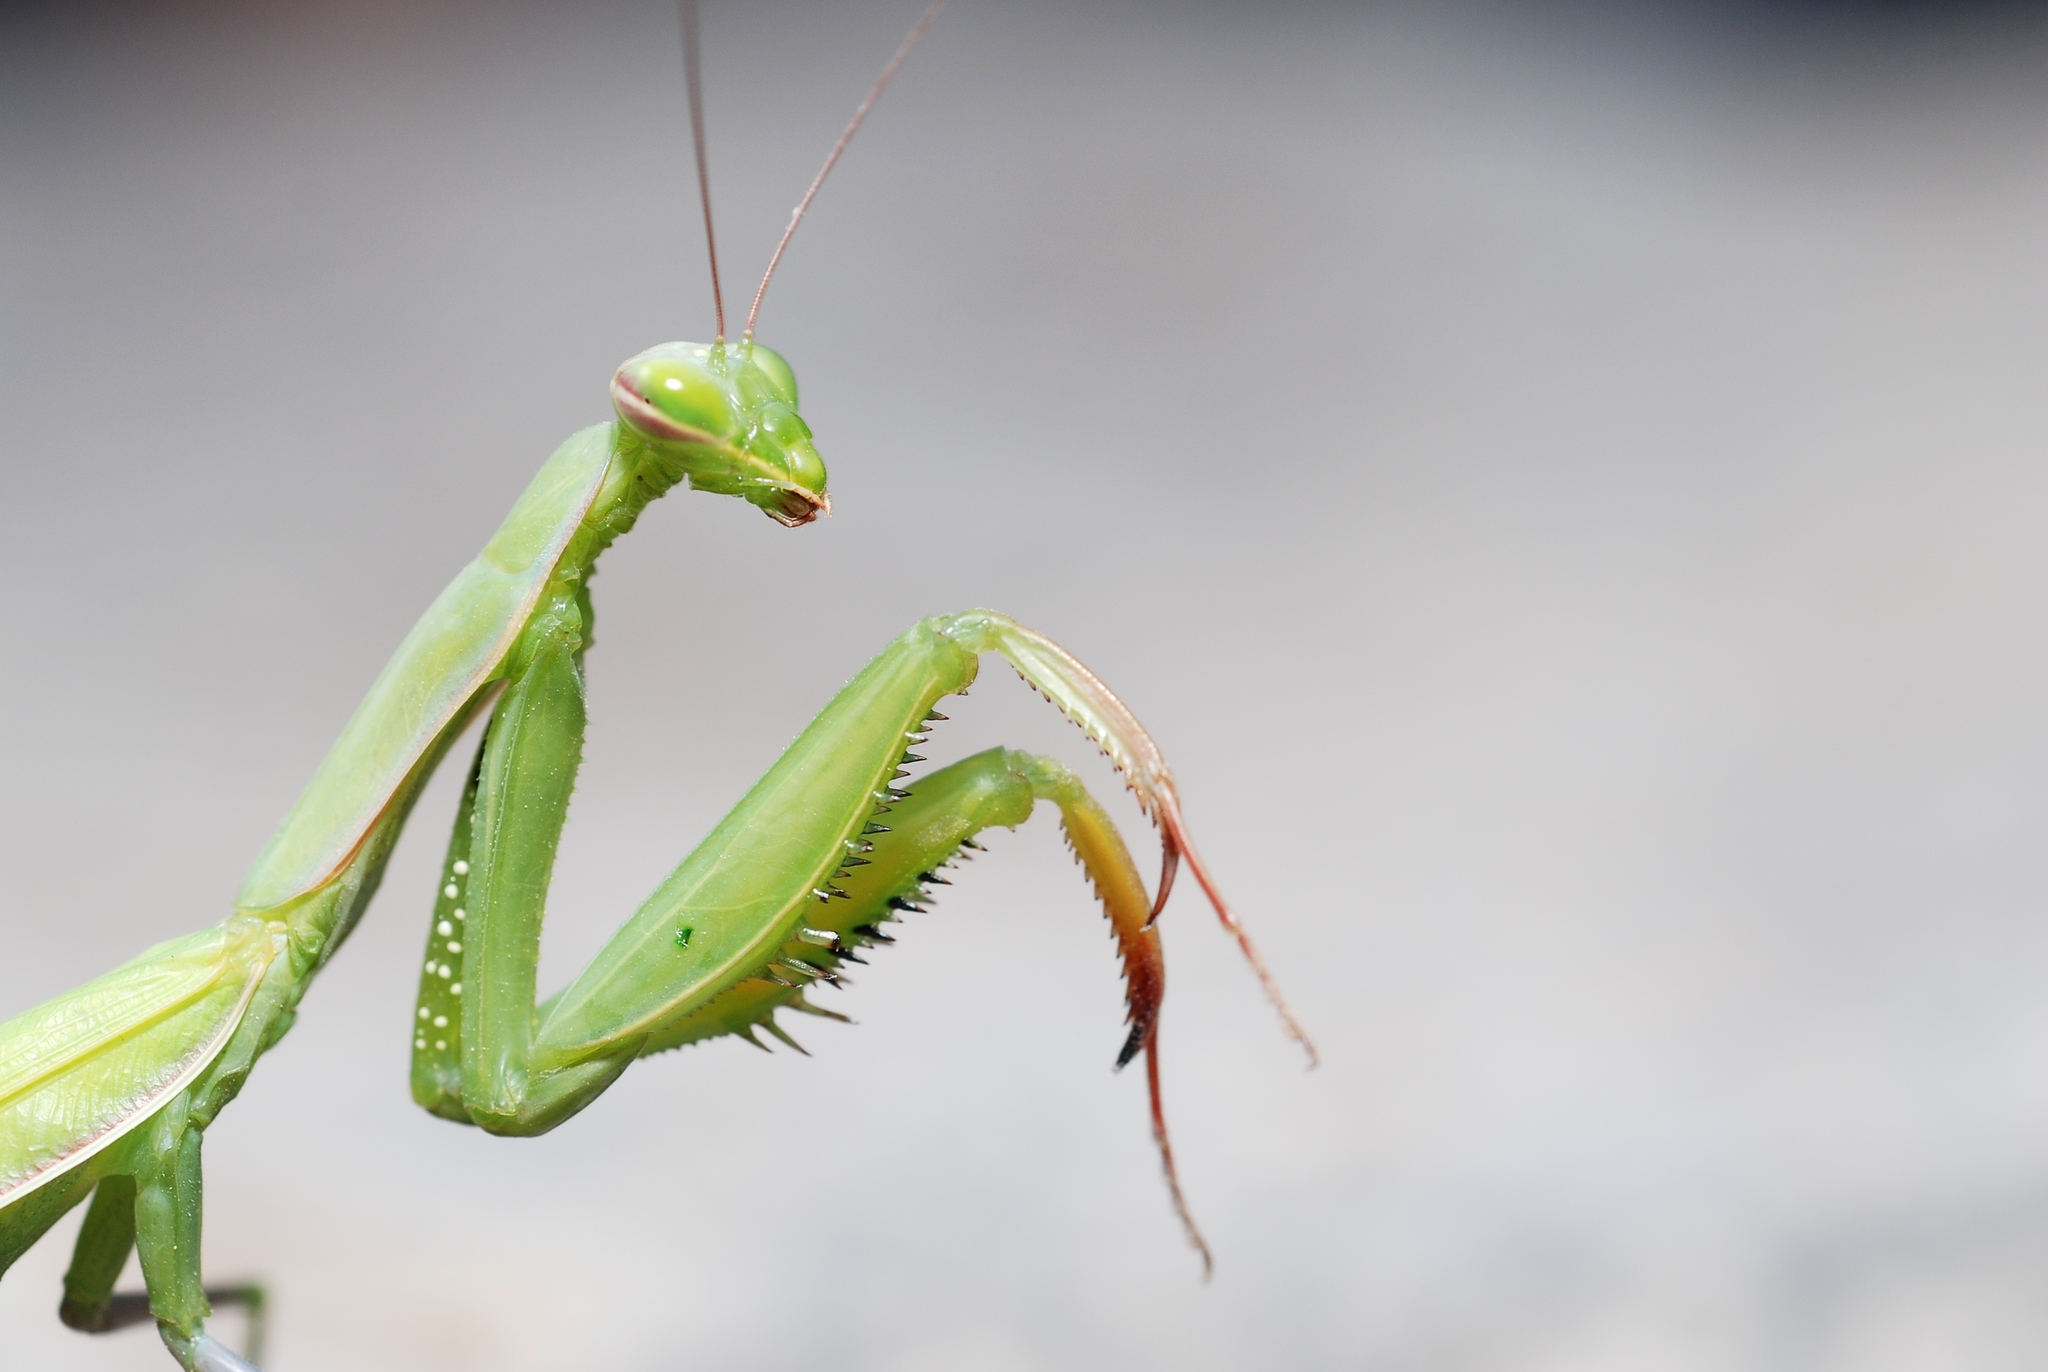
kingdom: Animalia
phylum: Arthropoda
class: Insecta
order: Mantodea
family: Mantidae
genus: Mantis
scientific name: Mantis religiosa
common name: Praying mantis
